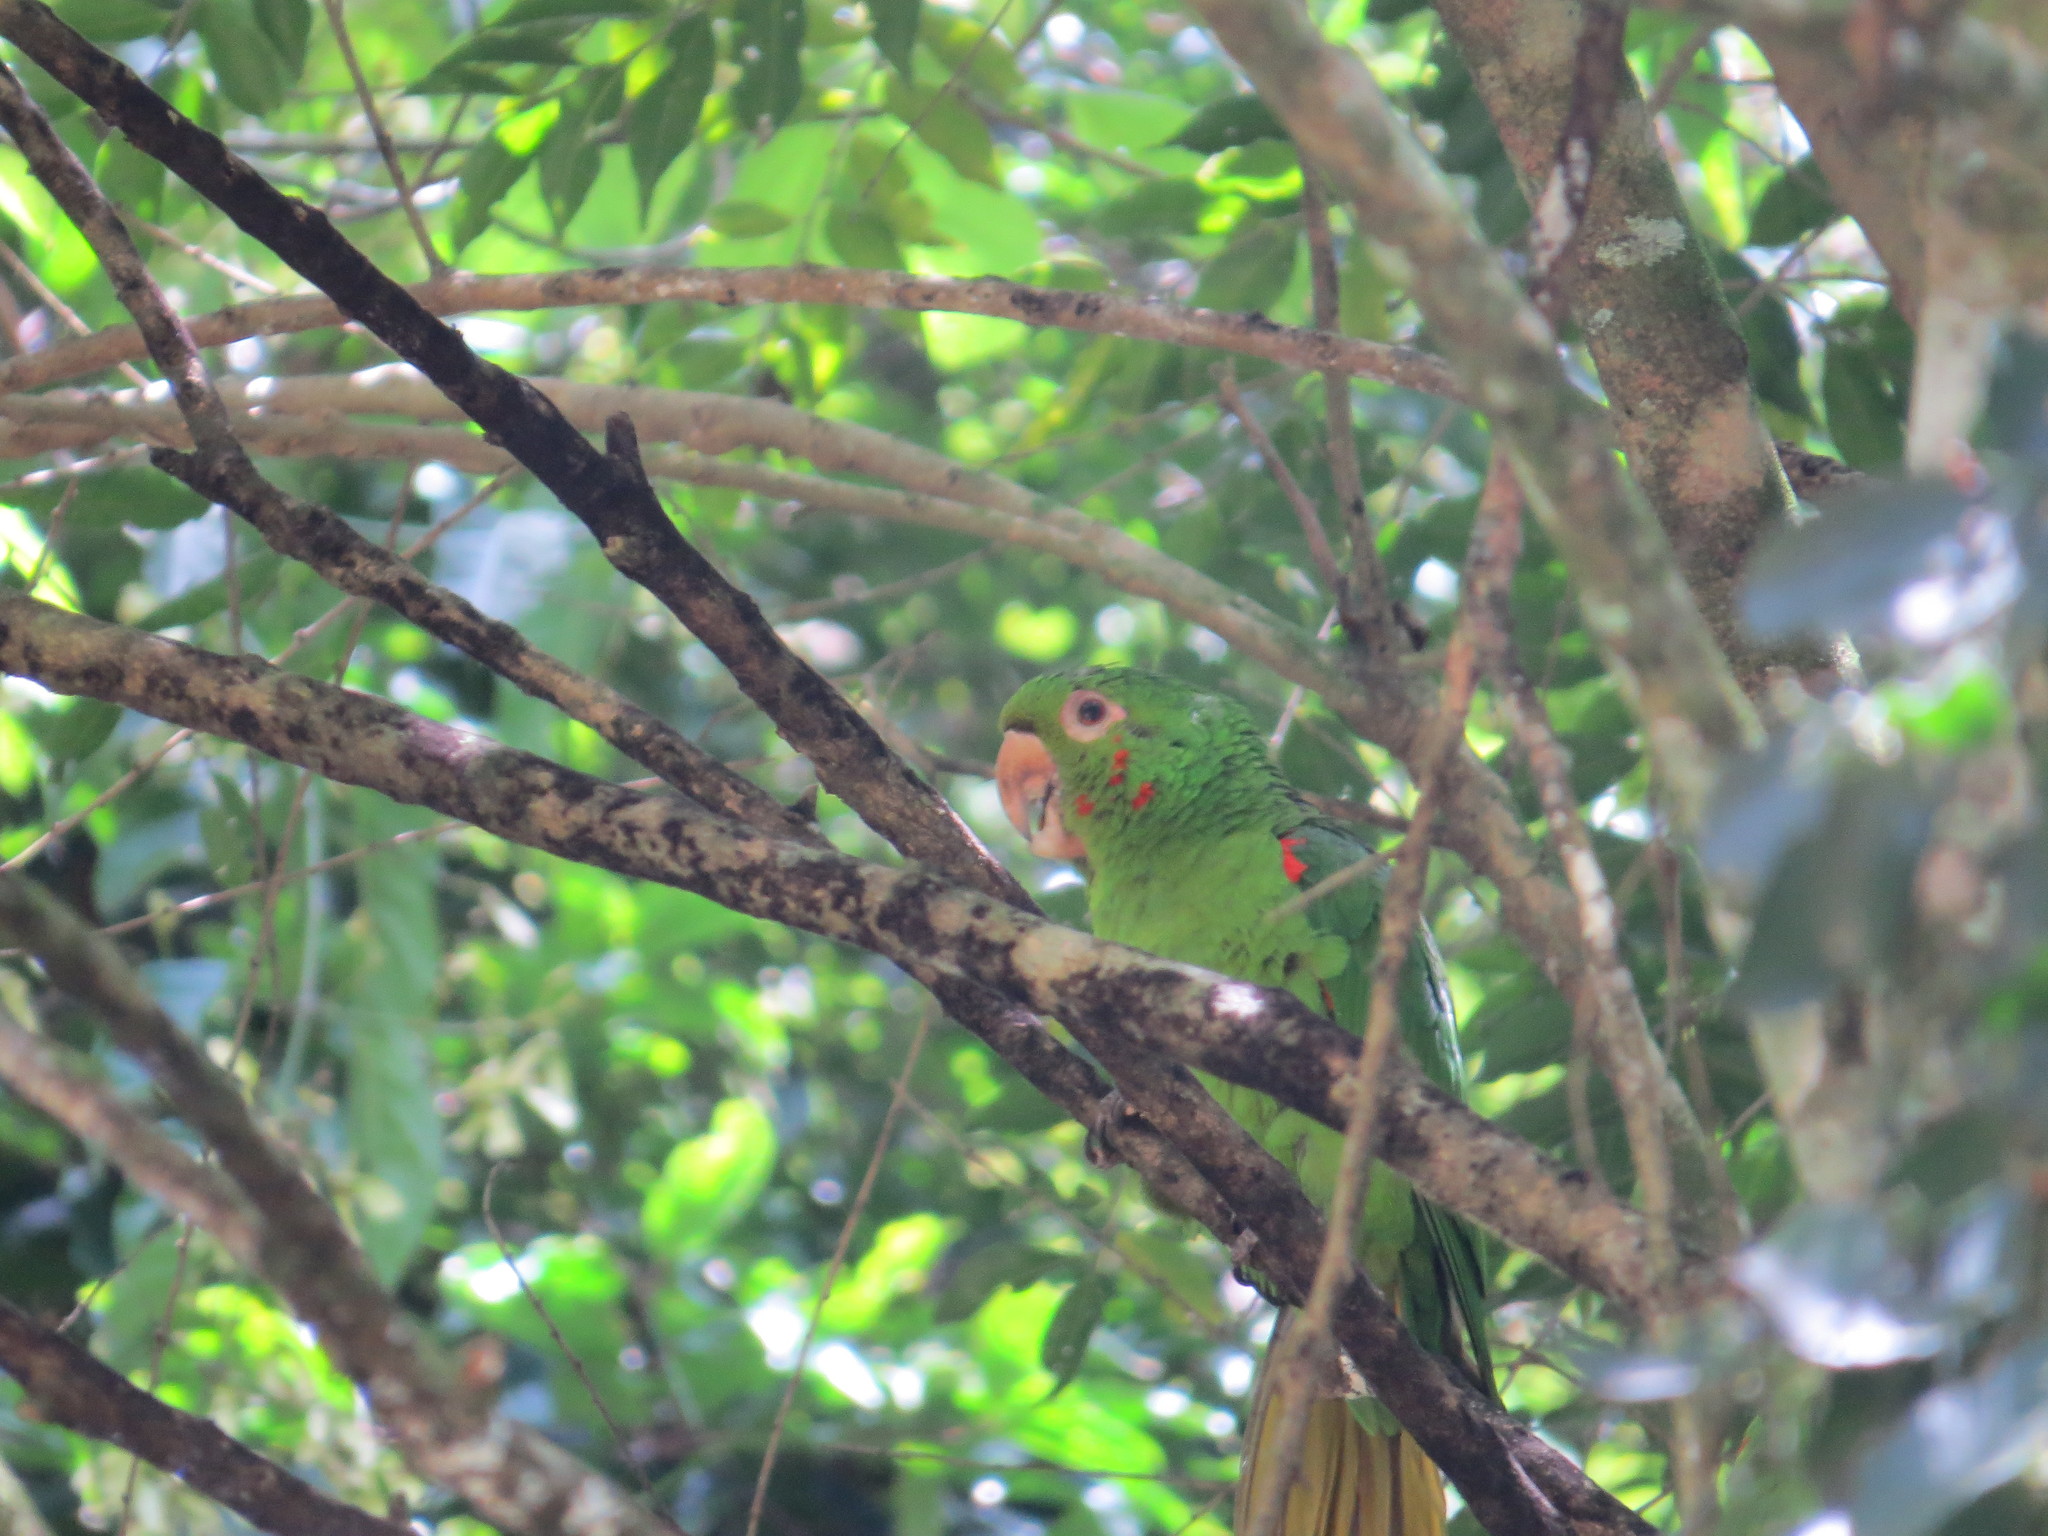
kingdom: Animalia
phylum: Chordata
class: Aves
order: Psittaciformes
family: Psittacidae
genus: Aratinga
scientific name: Aratinga leucophthalma
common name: White-eyed parakeet
